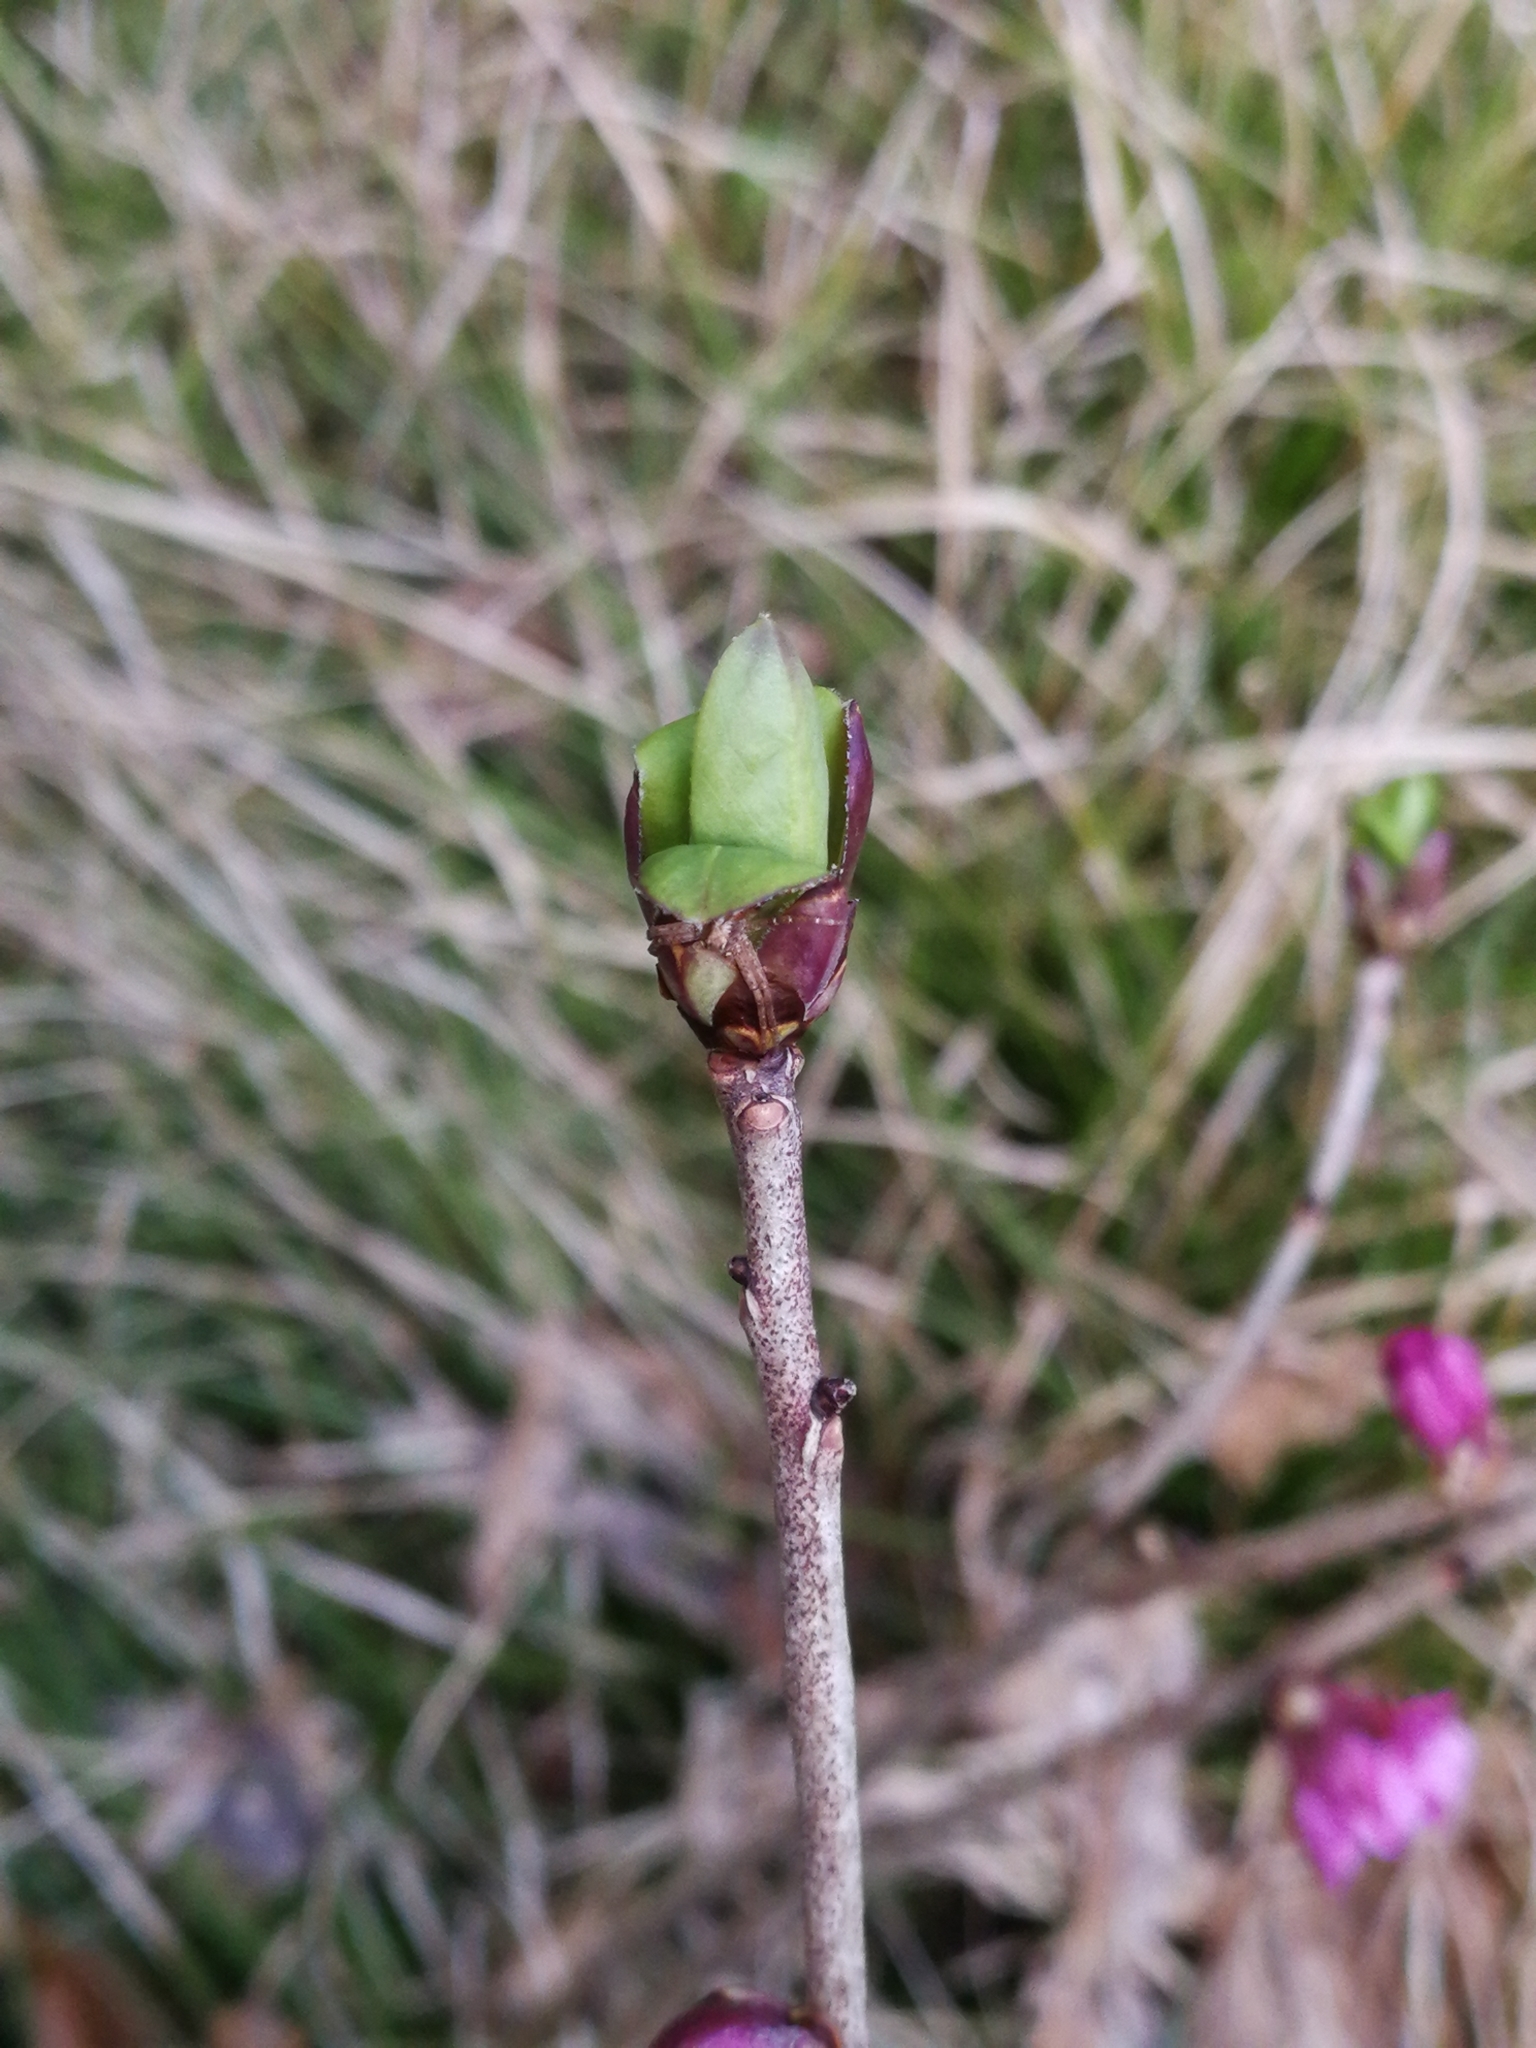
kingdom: Plantae
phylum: Tracheophyta
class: Magnoliopsida
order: Malvales
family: Thymelaeaceae
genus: Daphne
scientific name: Daphne mezereum
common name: Mezereon
